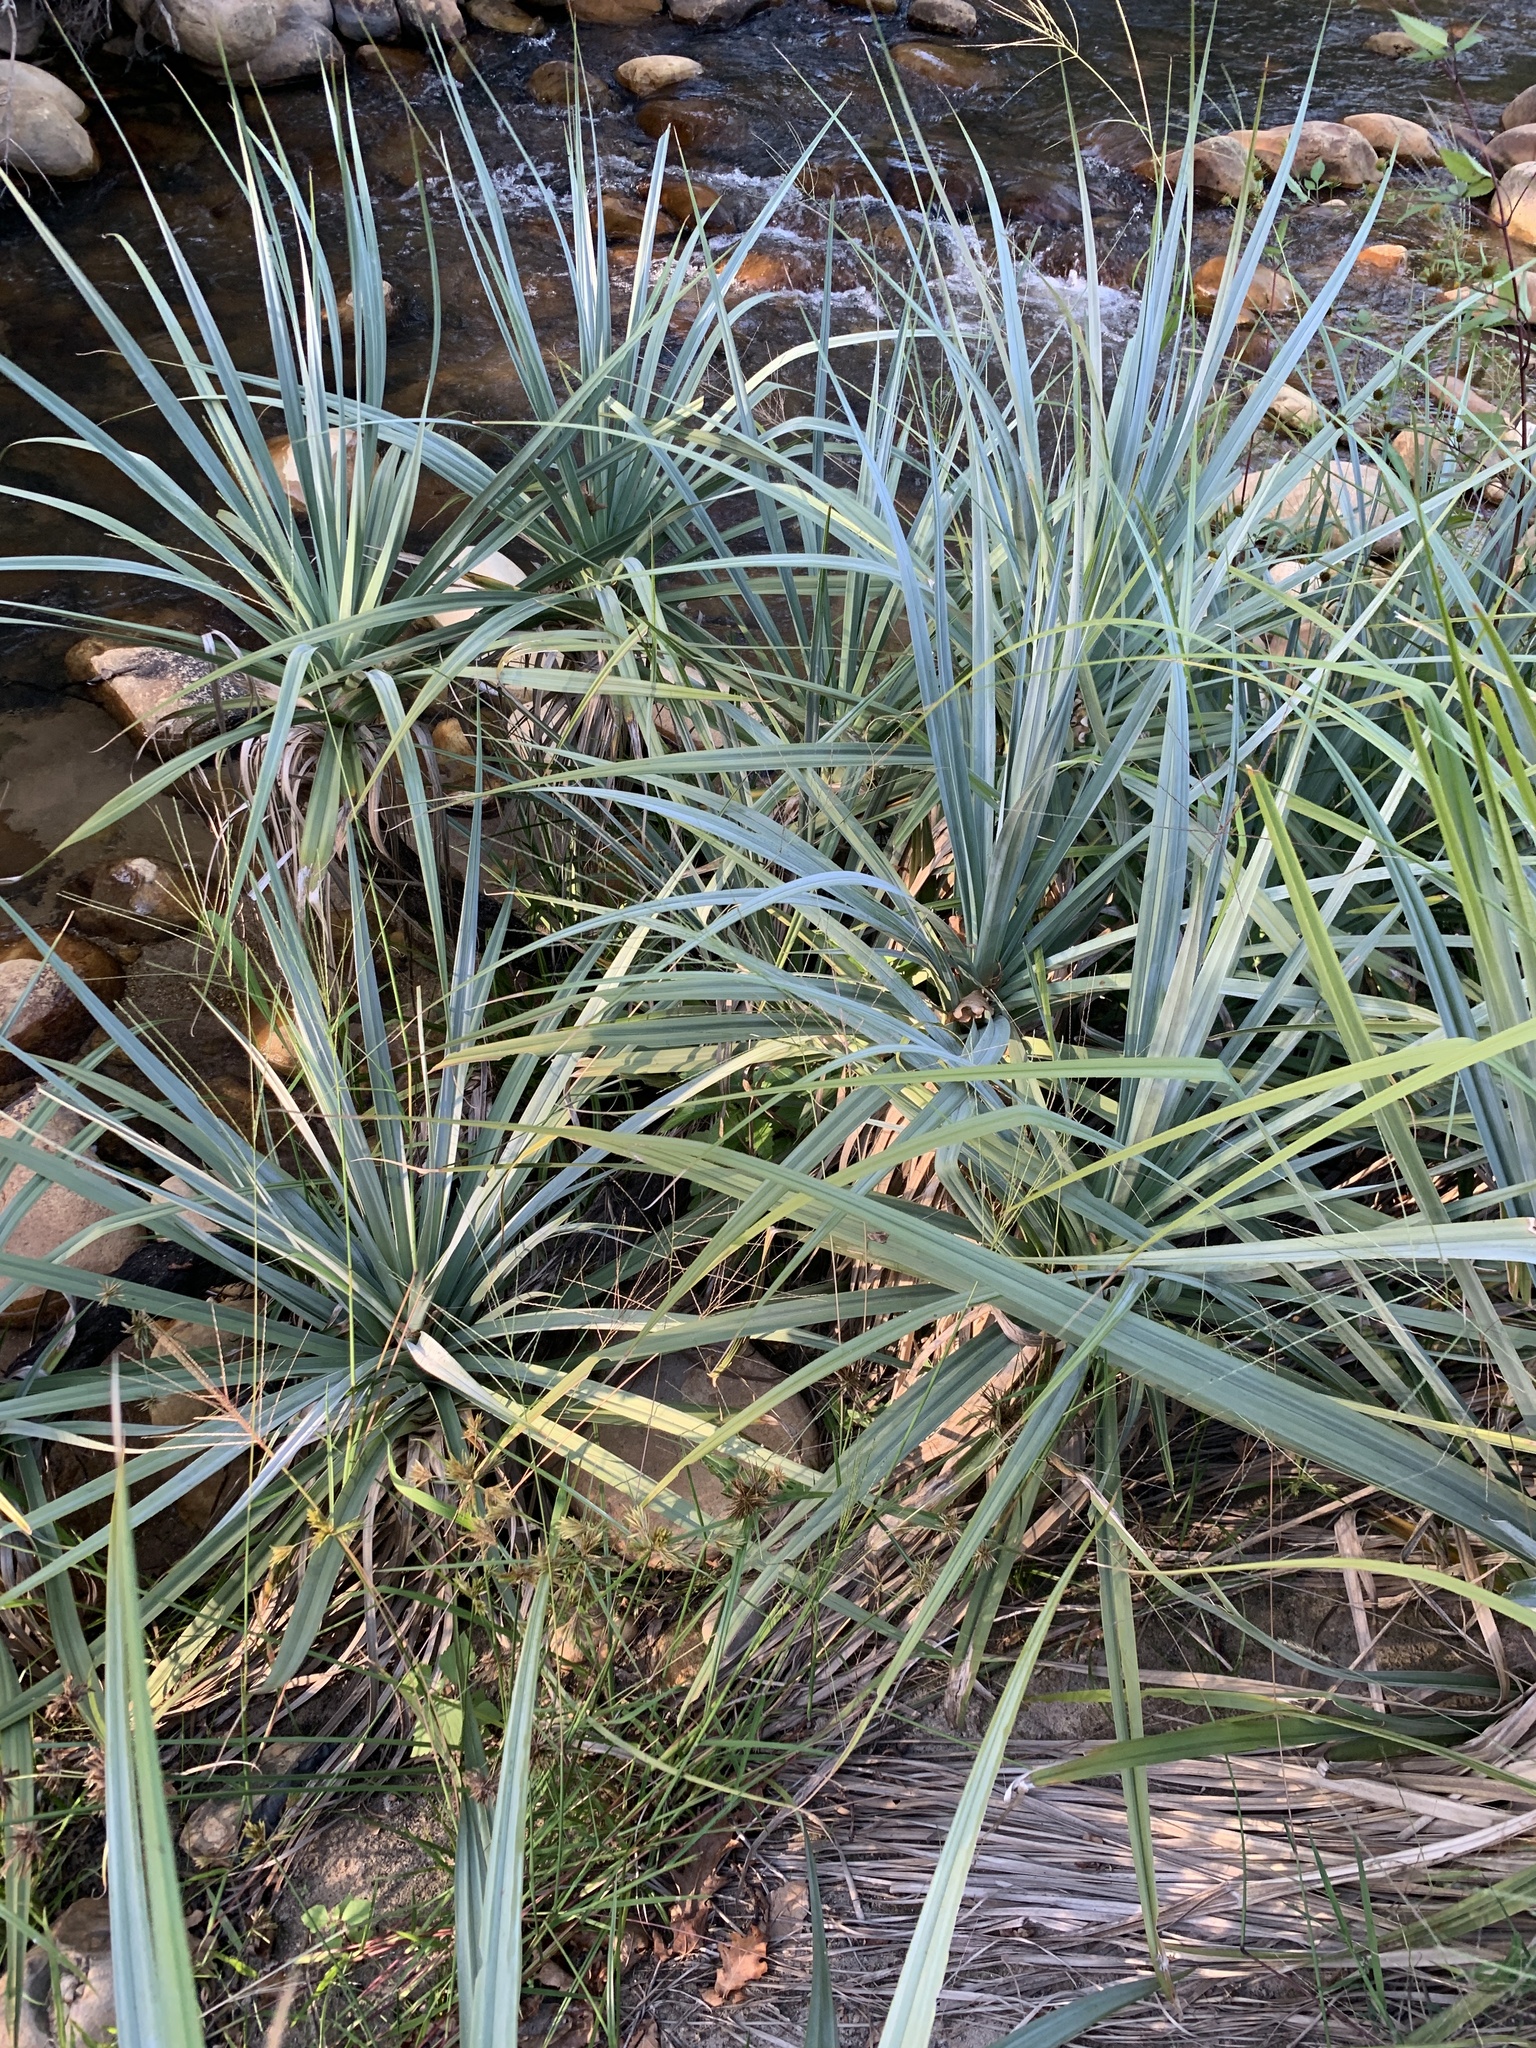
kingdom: Plantae
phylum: Tracheophyta
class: Liliopsida
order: Poales
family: Thurniaceae
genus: Prionium
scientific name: Prionium serratum
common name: Palmiet
